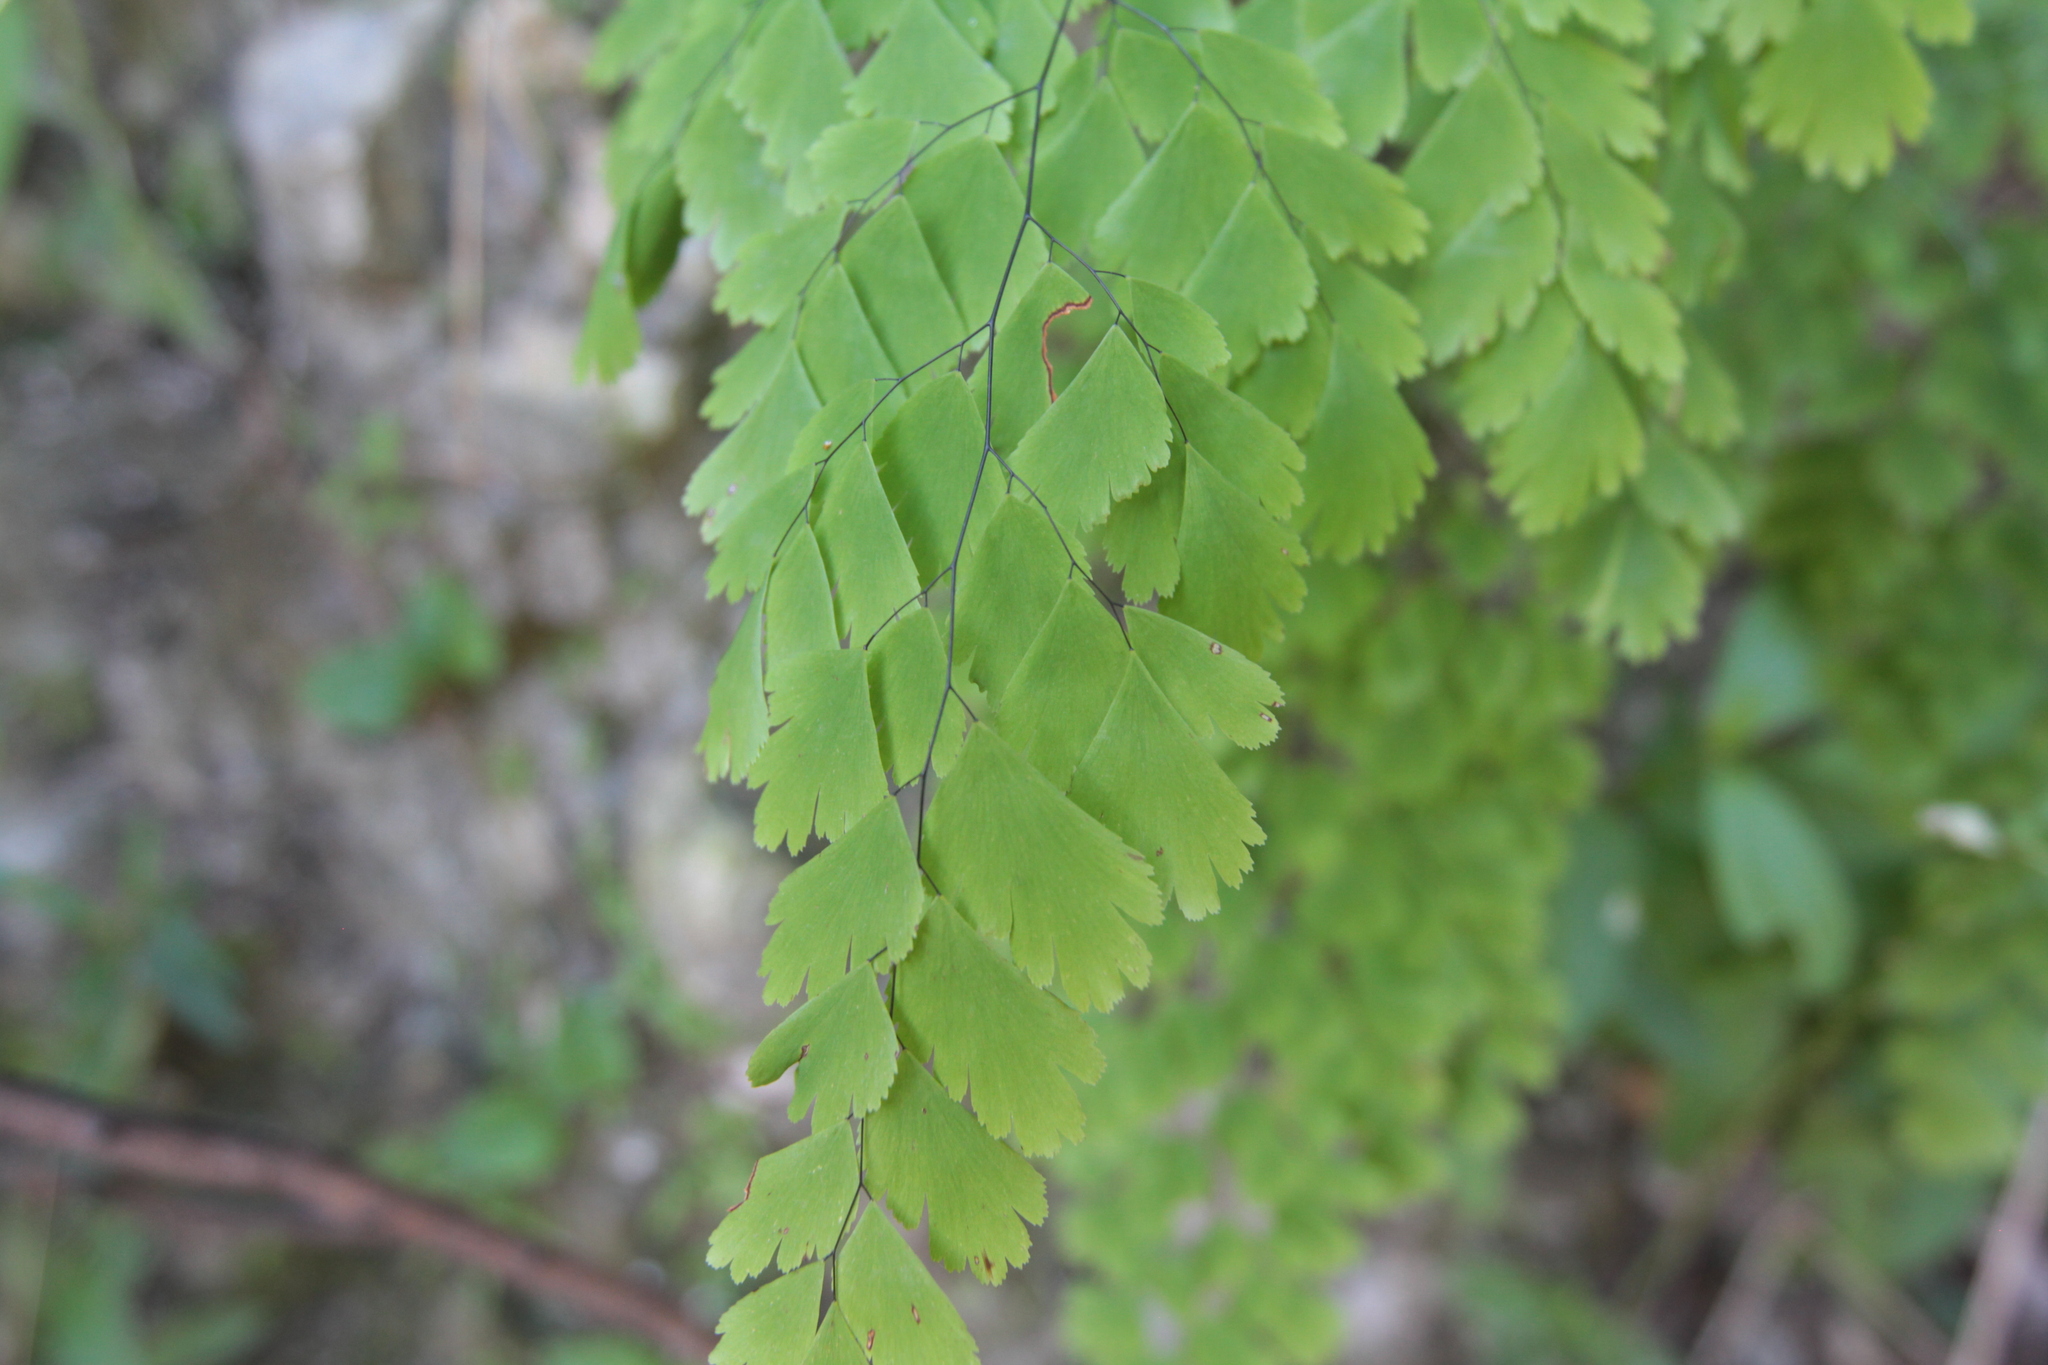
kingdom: Plantae
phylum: Tracheophyta
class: Polypodiopsida
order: Polypodiales
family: Pteridaceae
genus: Adiantum
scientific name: Adiantum tenerum
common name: Fan maidenhair
